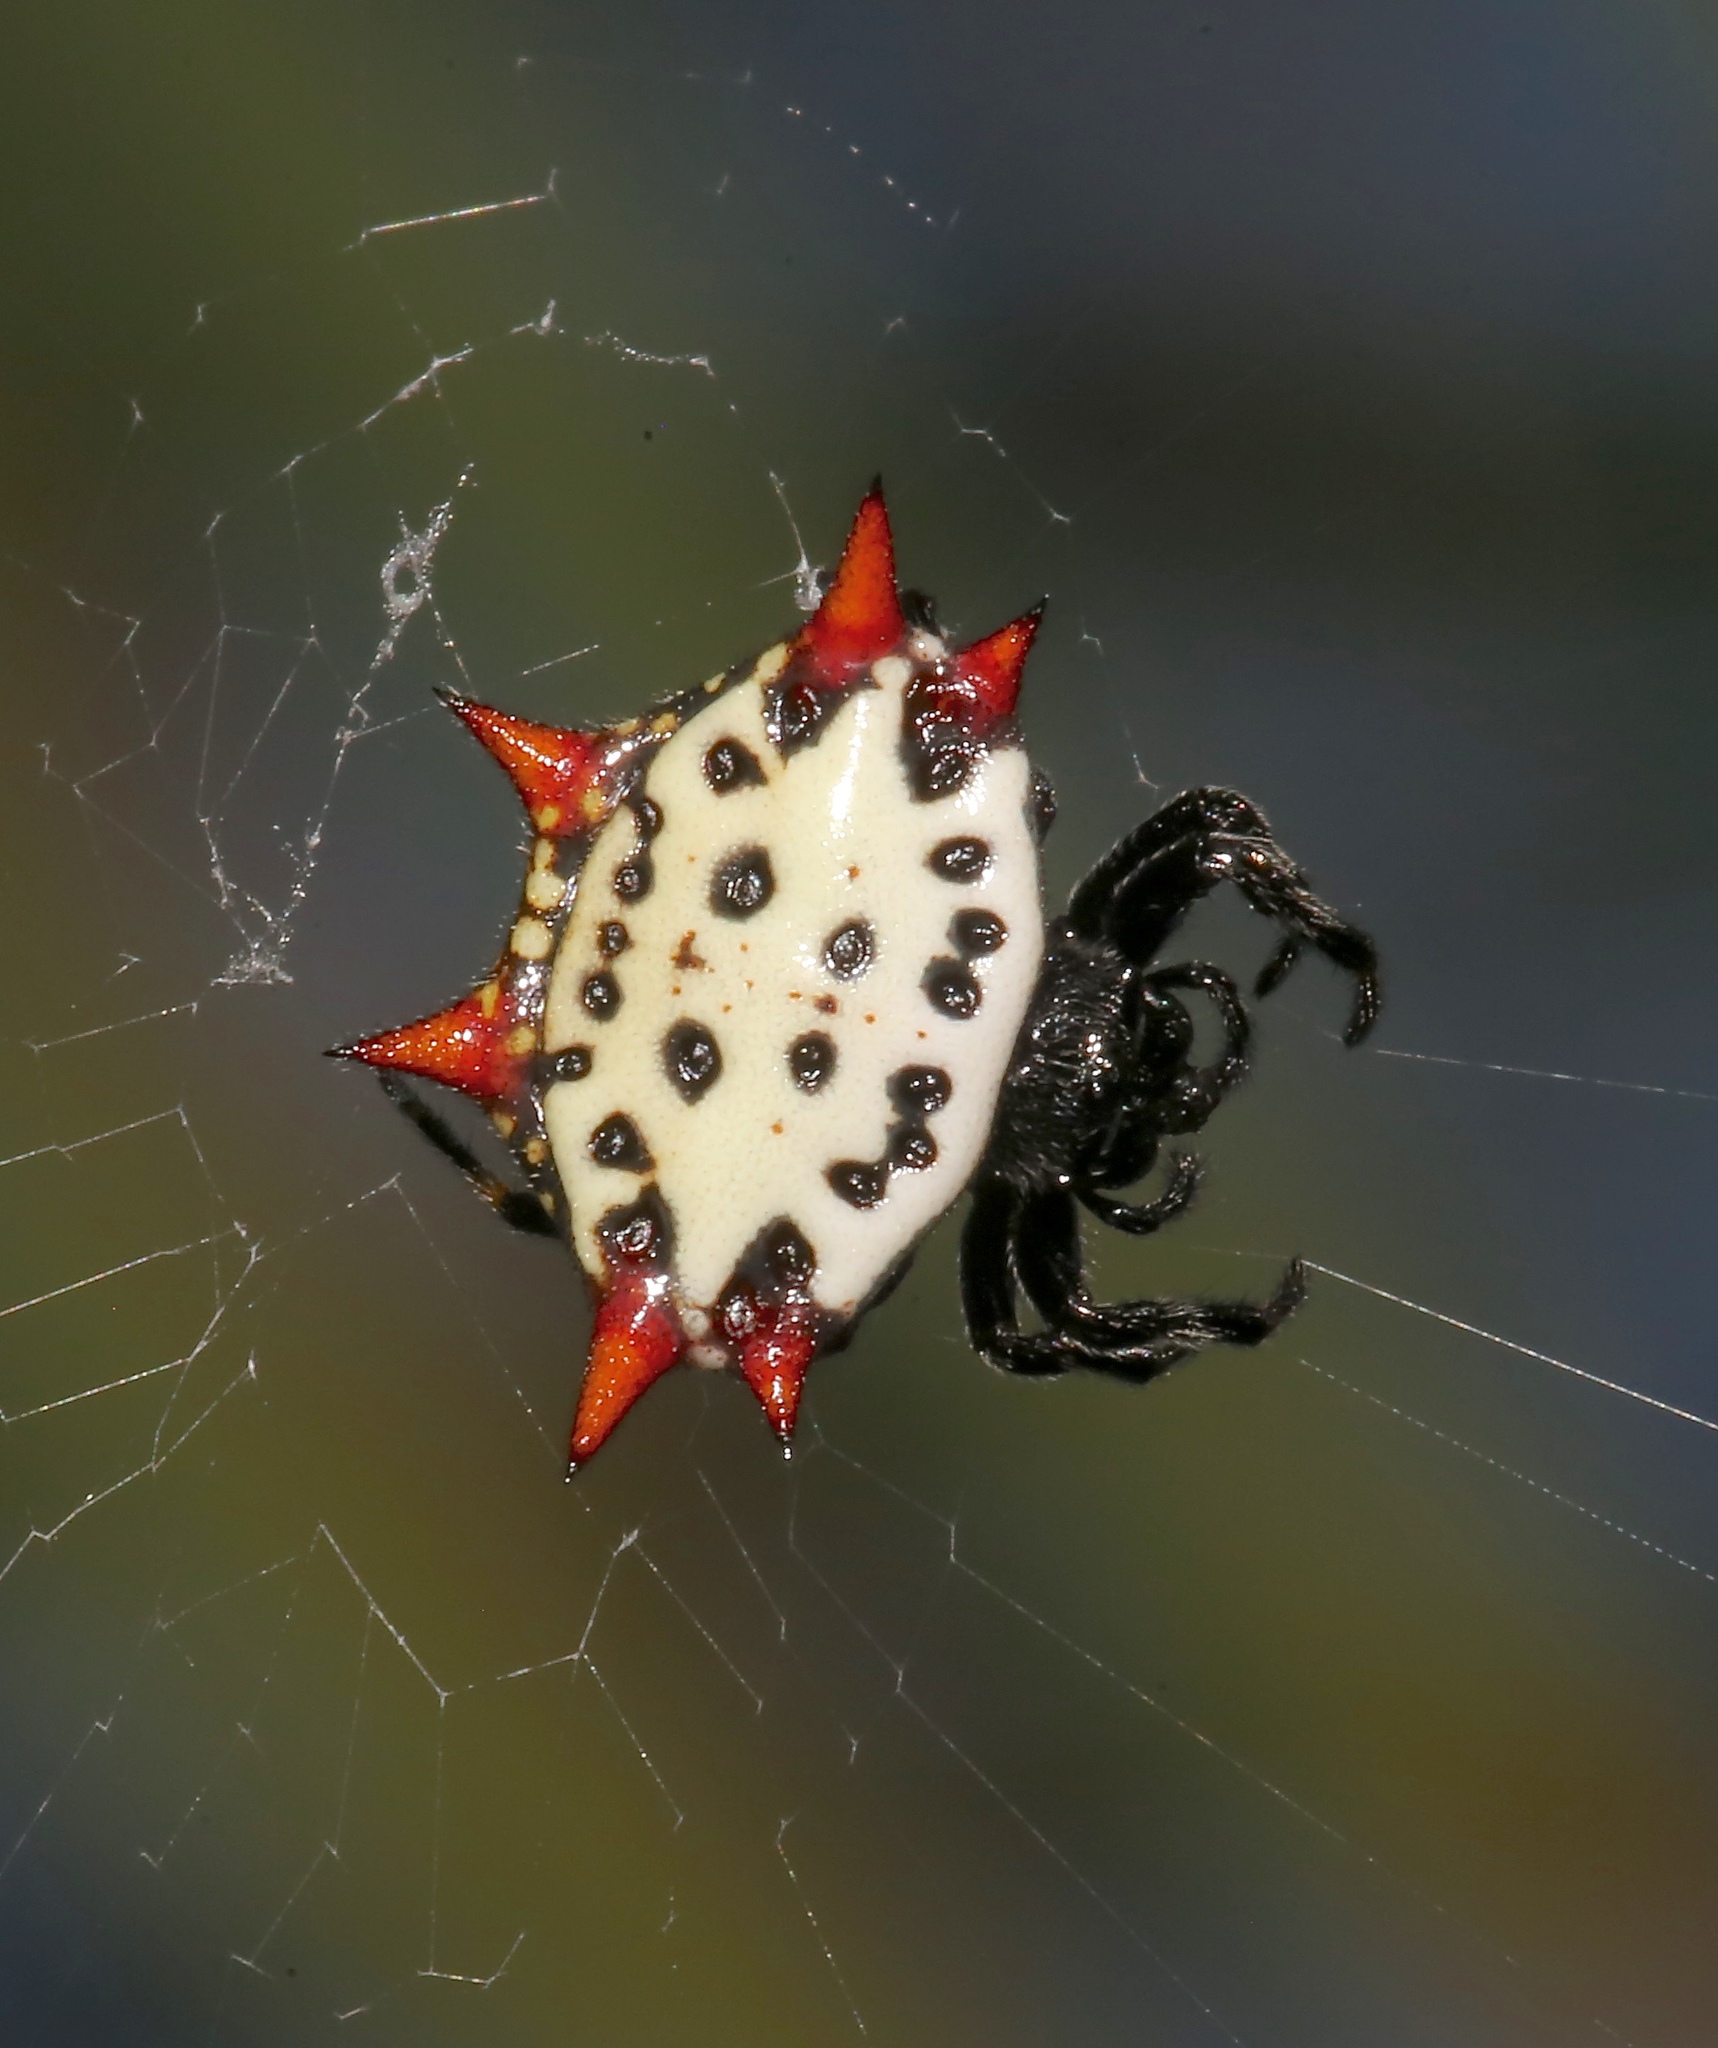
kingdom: Animalia
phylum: Arthropoda
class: Arachnida
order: Araneae
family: Araneidae
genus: Gasteracantha
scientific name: Gasteracantha cancriformis
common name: Orb weavers
